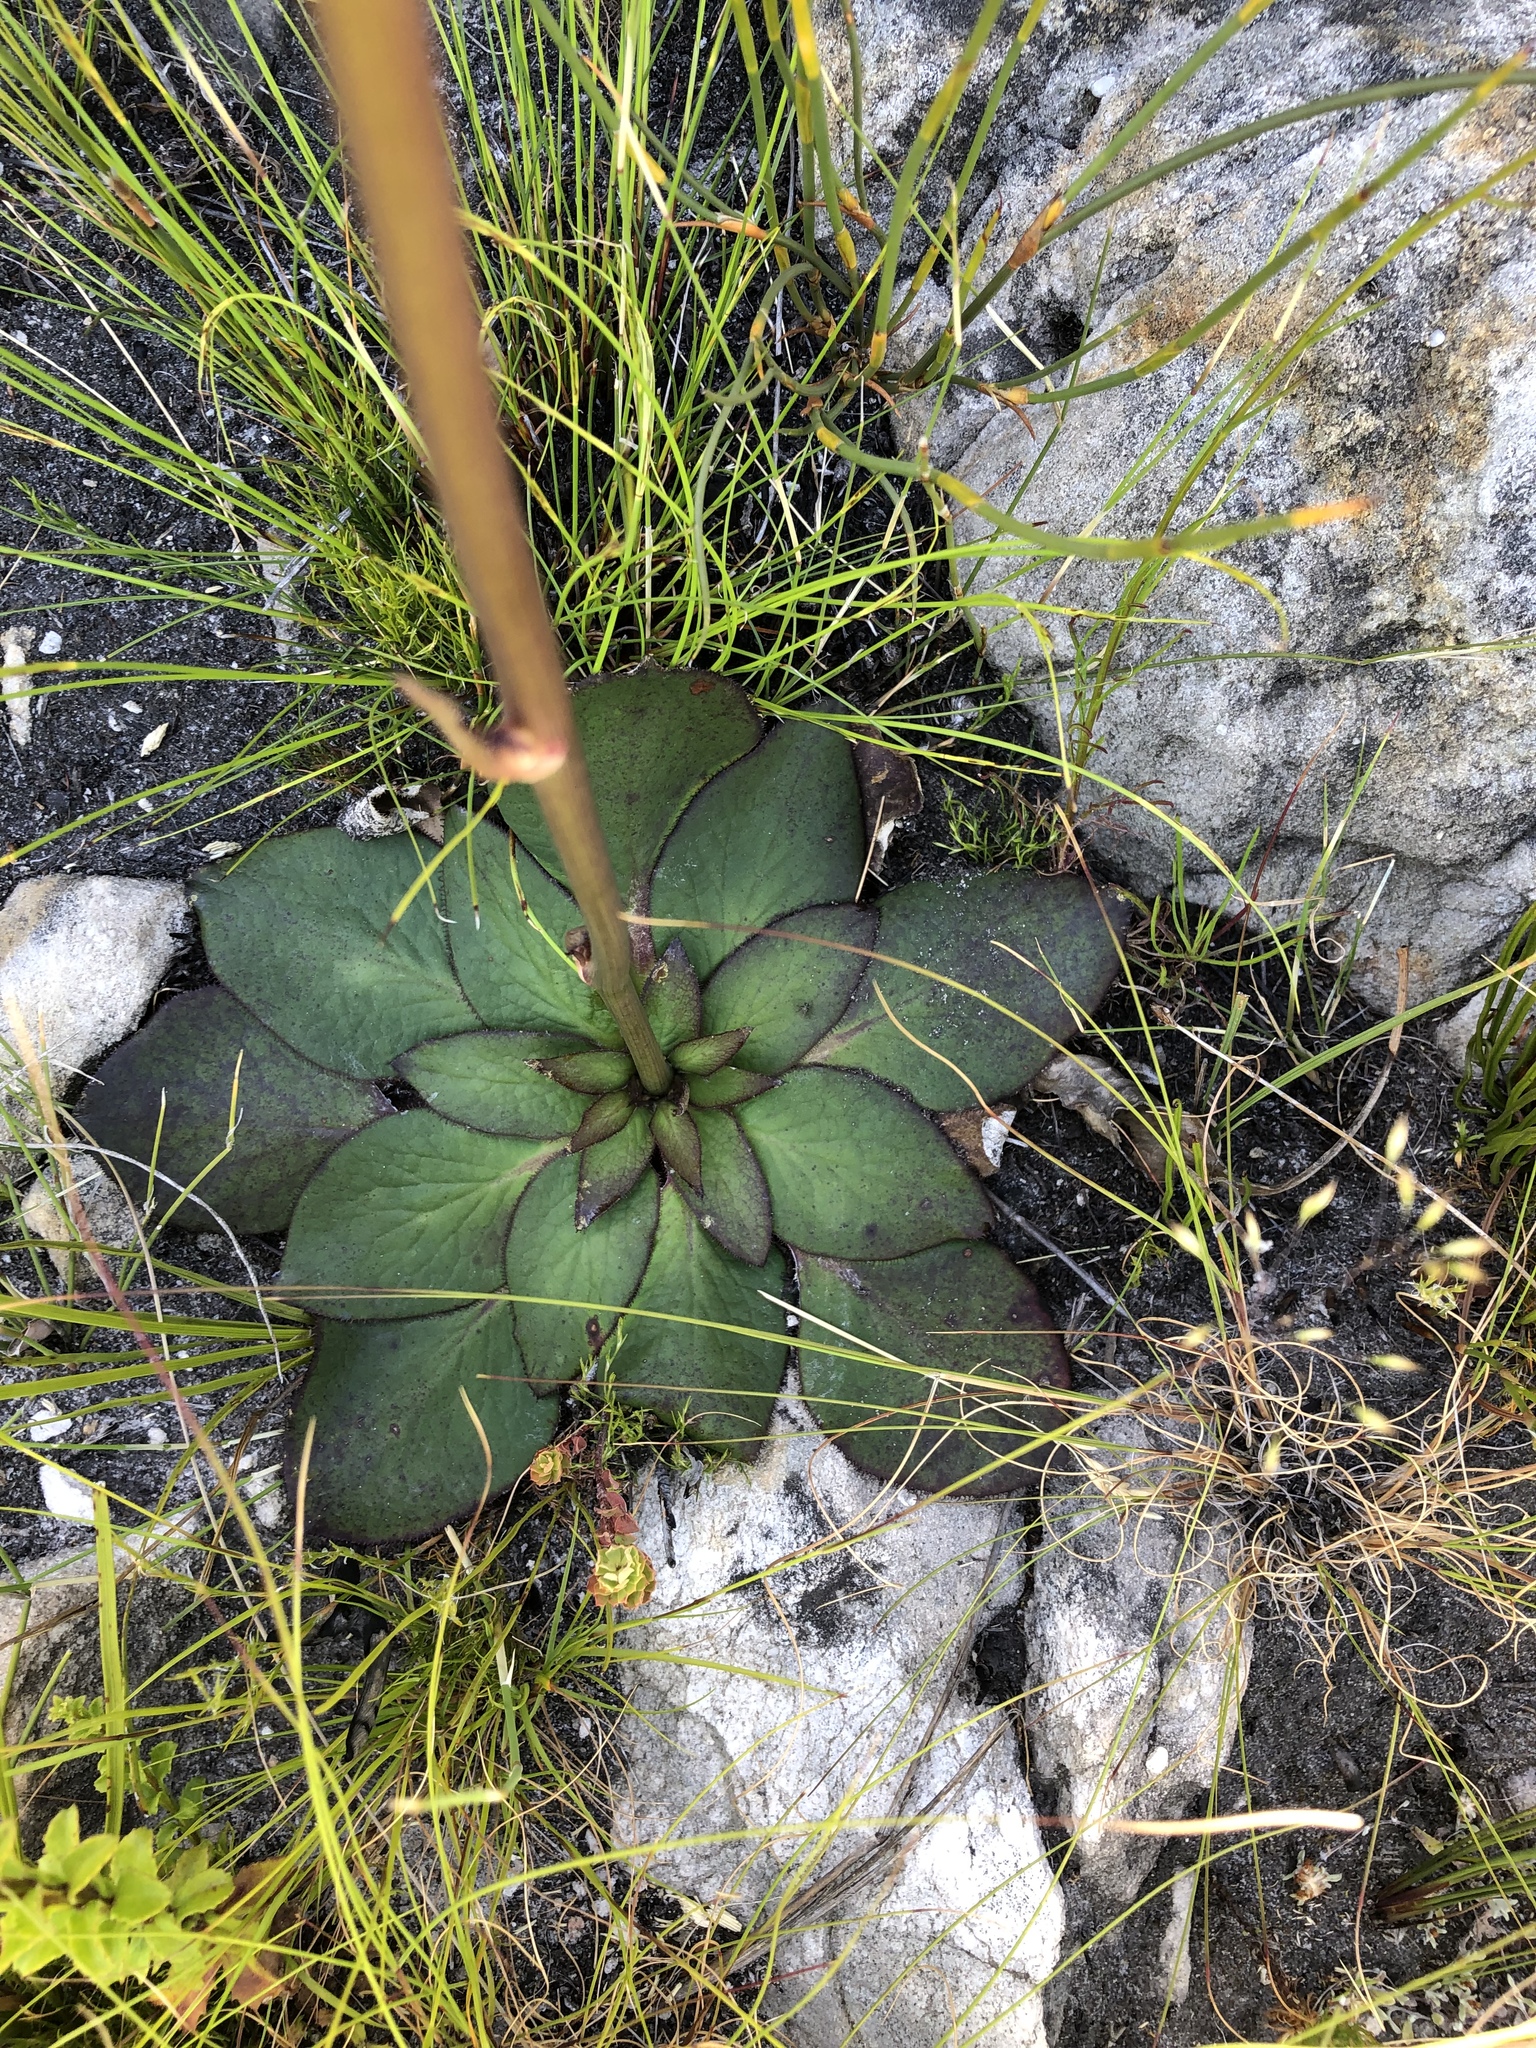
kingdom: Plantae
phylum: Tracheophyta
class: Magnoliopsida
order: Apiales
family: Apiaceae
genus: Hermas
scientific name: Hermas ciliata
